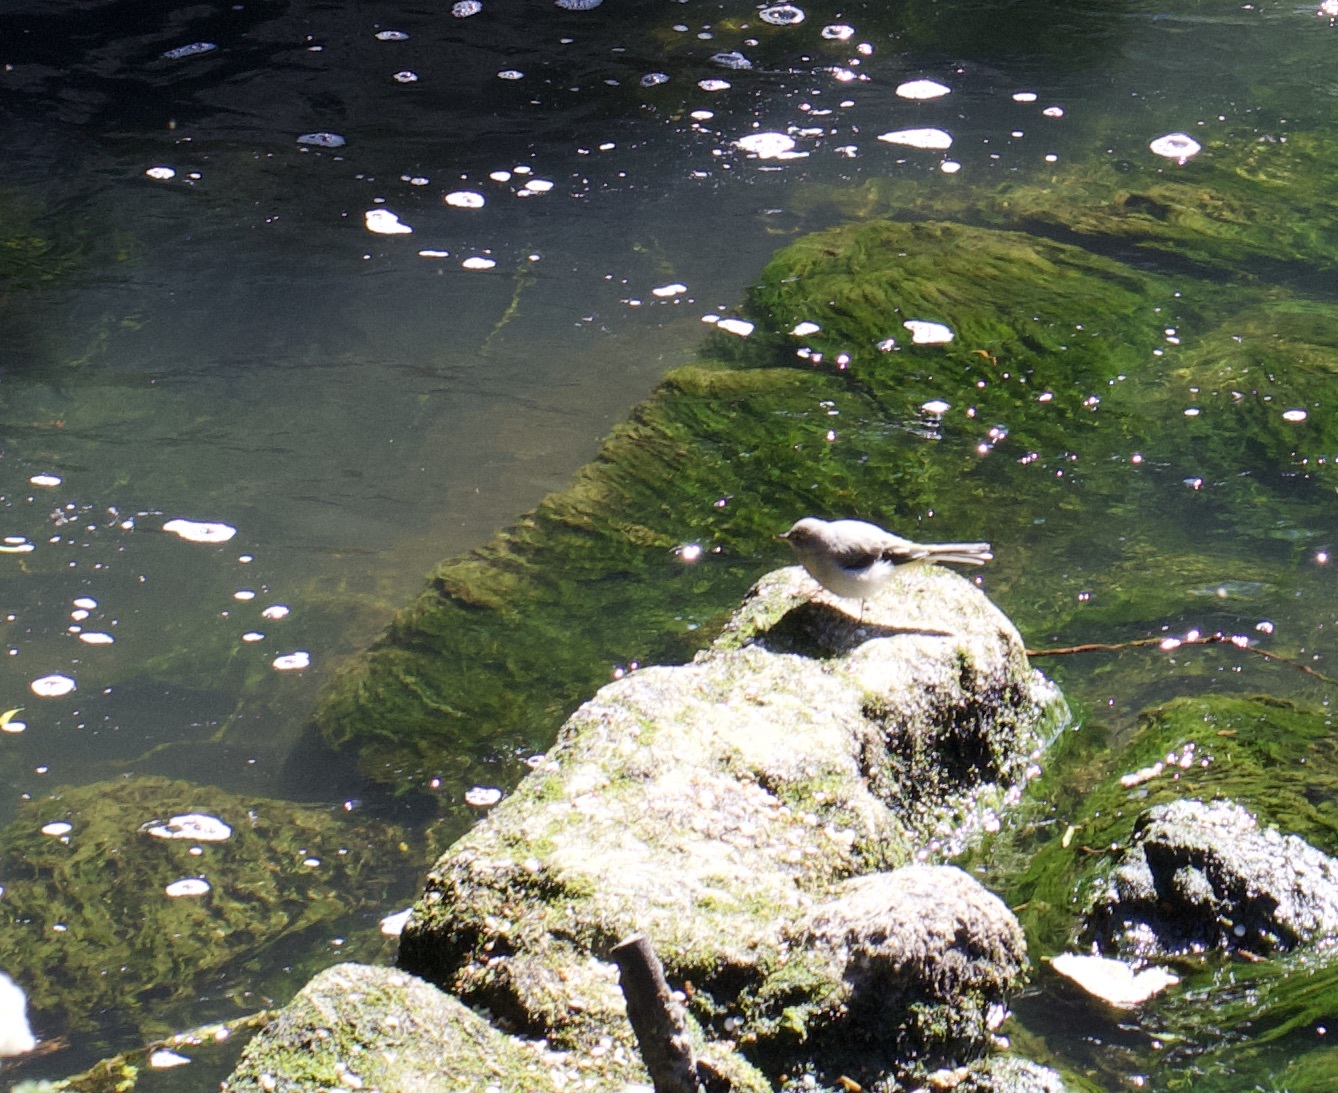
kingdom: Animalia
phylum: Chordata
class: Aves
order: Passeriformes
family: Motacillidae
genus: Motacilla
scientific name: Motacilla cinerea
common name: Grey wagtail
